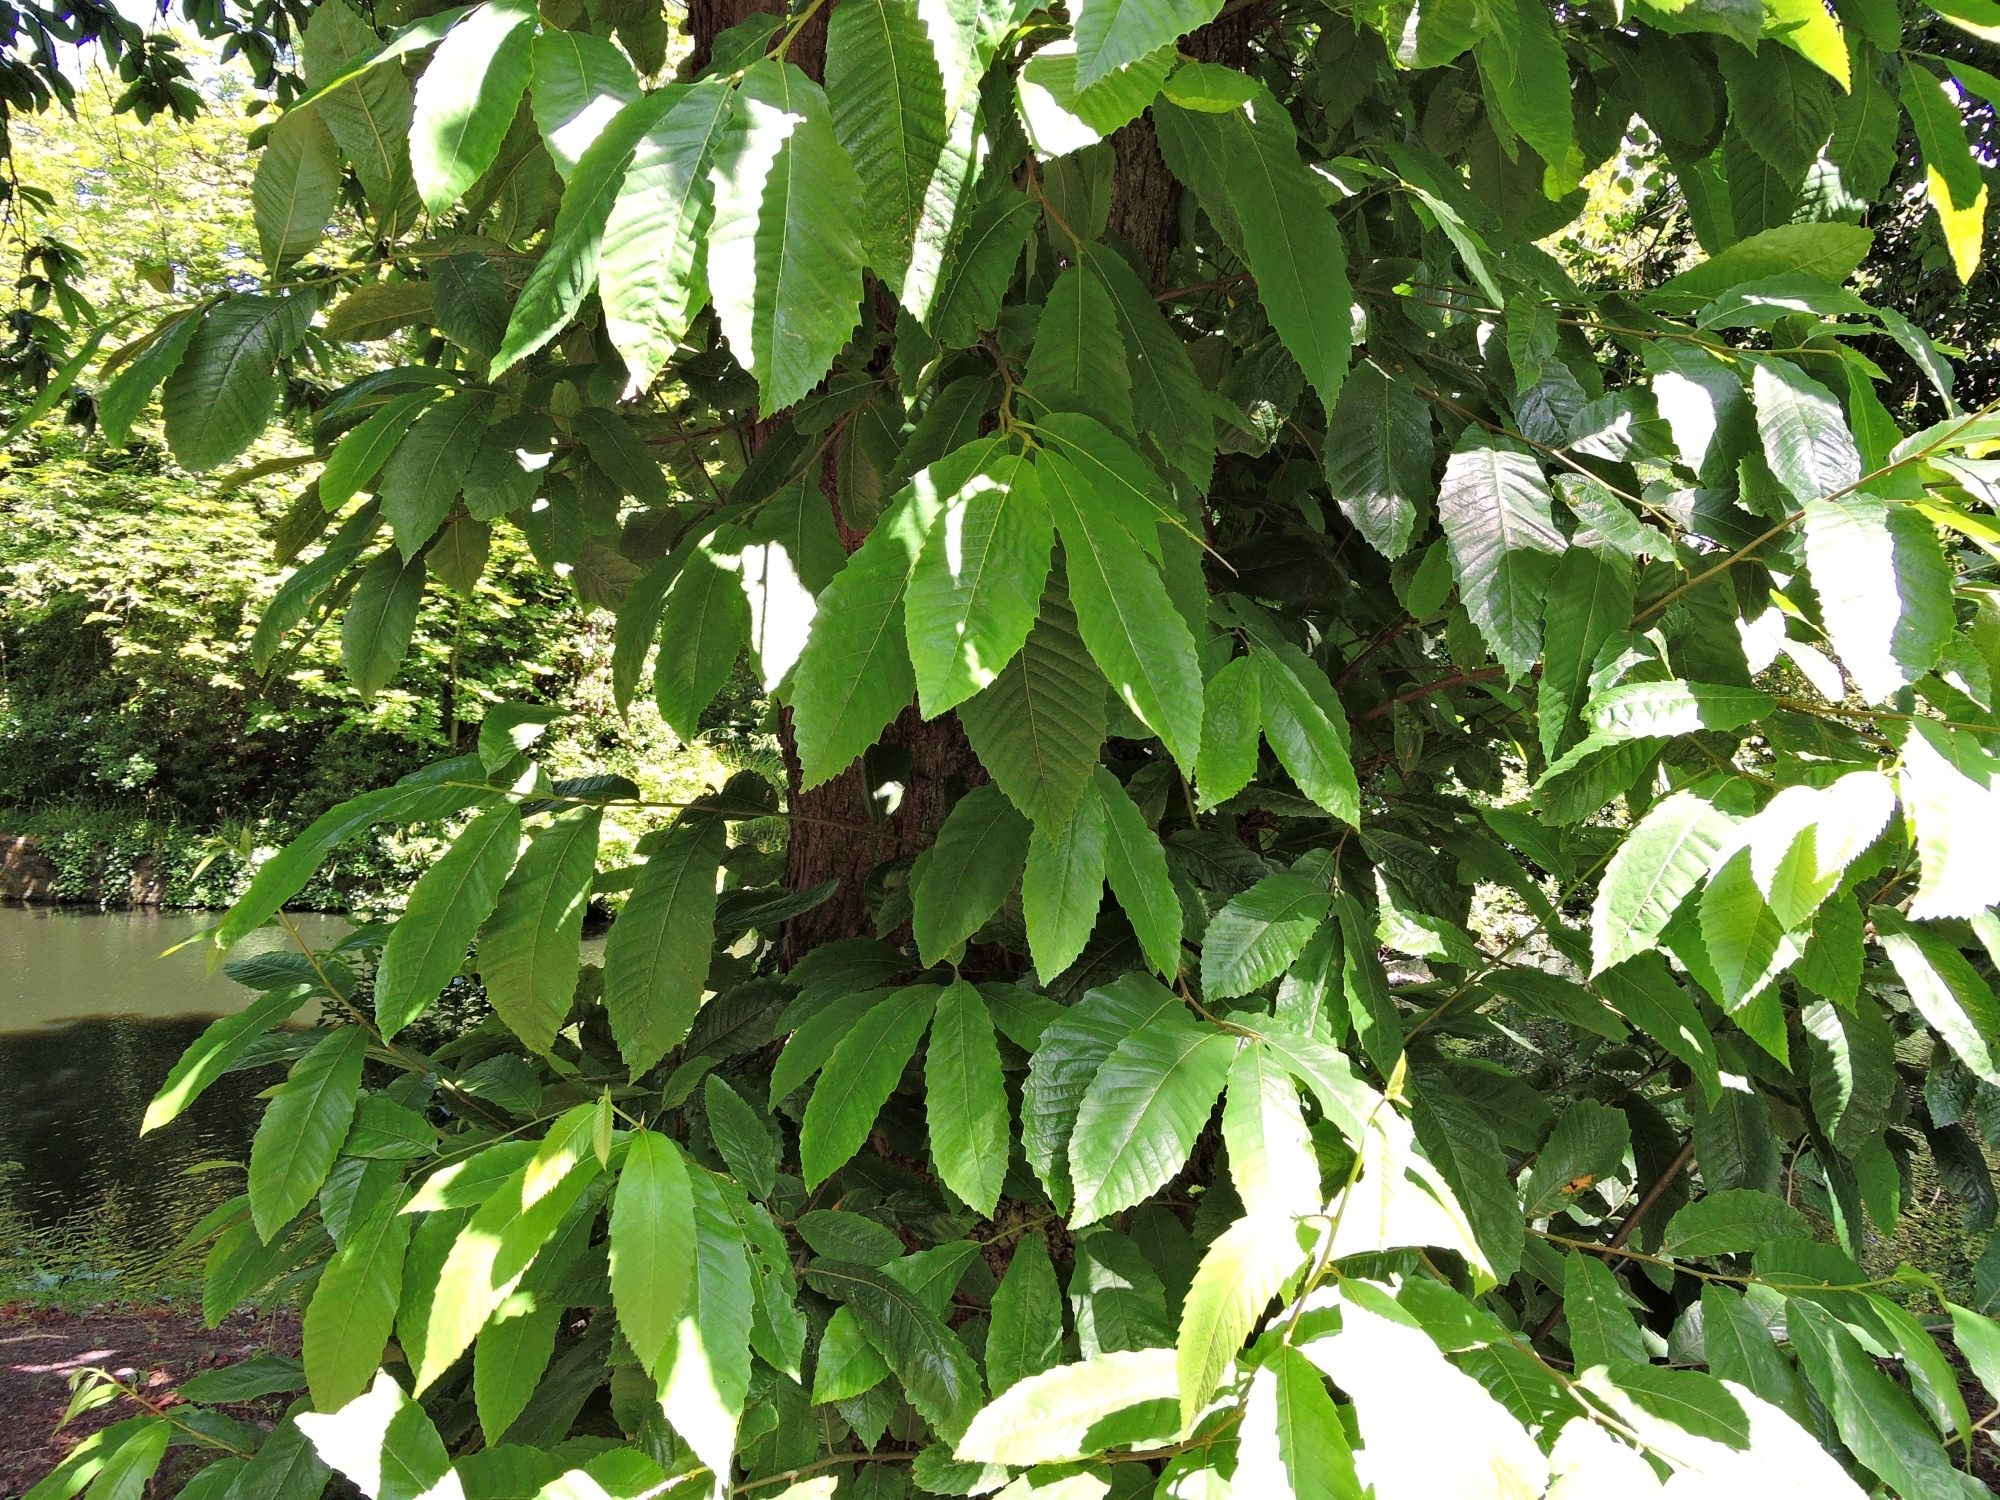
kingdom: Plantae
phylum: Tracheophyta
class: Magnoliopsida
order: Fagales
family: Fagaceae
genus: Castanea
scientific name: Castanea sativa
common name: Sweet chestnut
